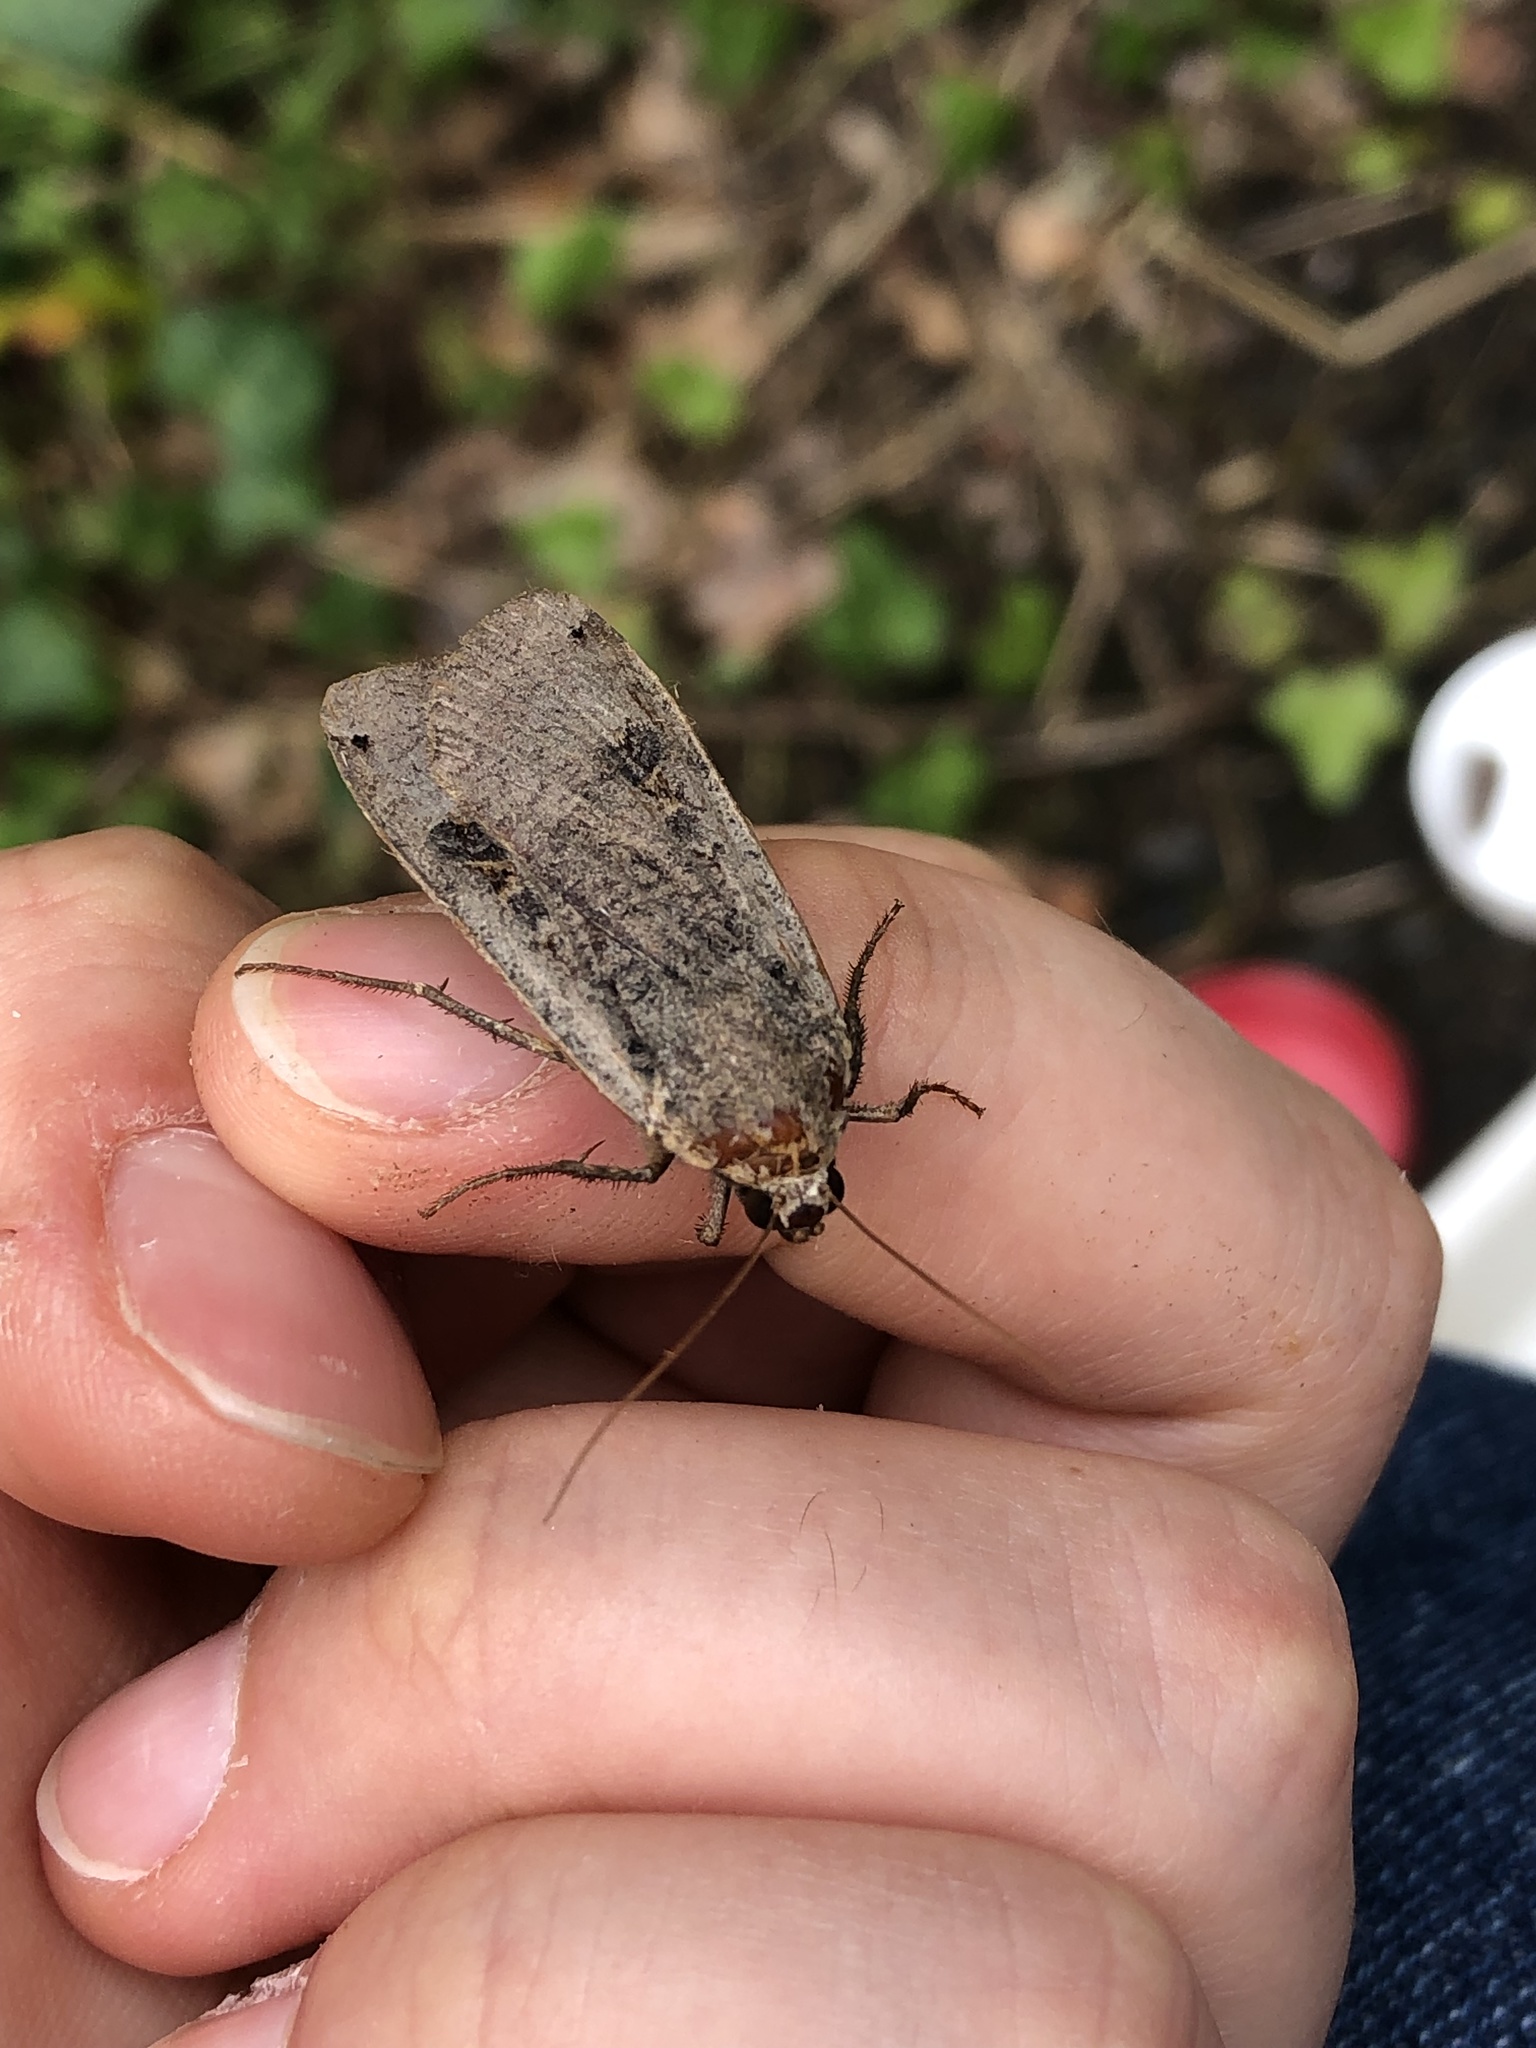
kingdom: Animalia
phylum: Arthropoda
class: Insecta
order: Lepidoptera
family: Noctuidae
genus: Noctua
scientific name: Noctua pronuba
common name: Large yellow underwing
